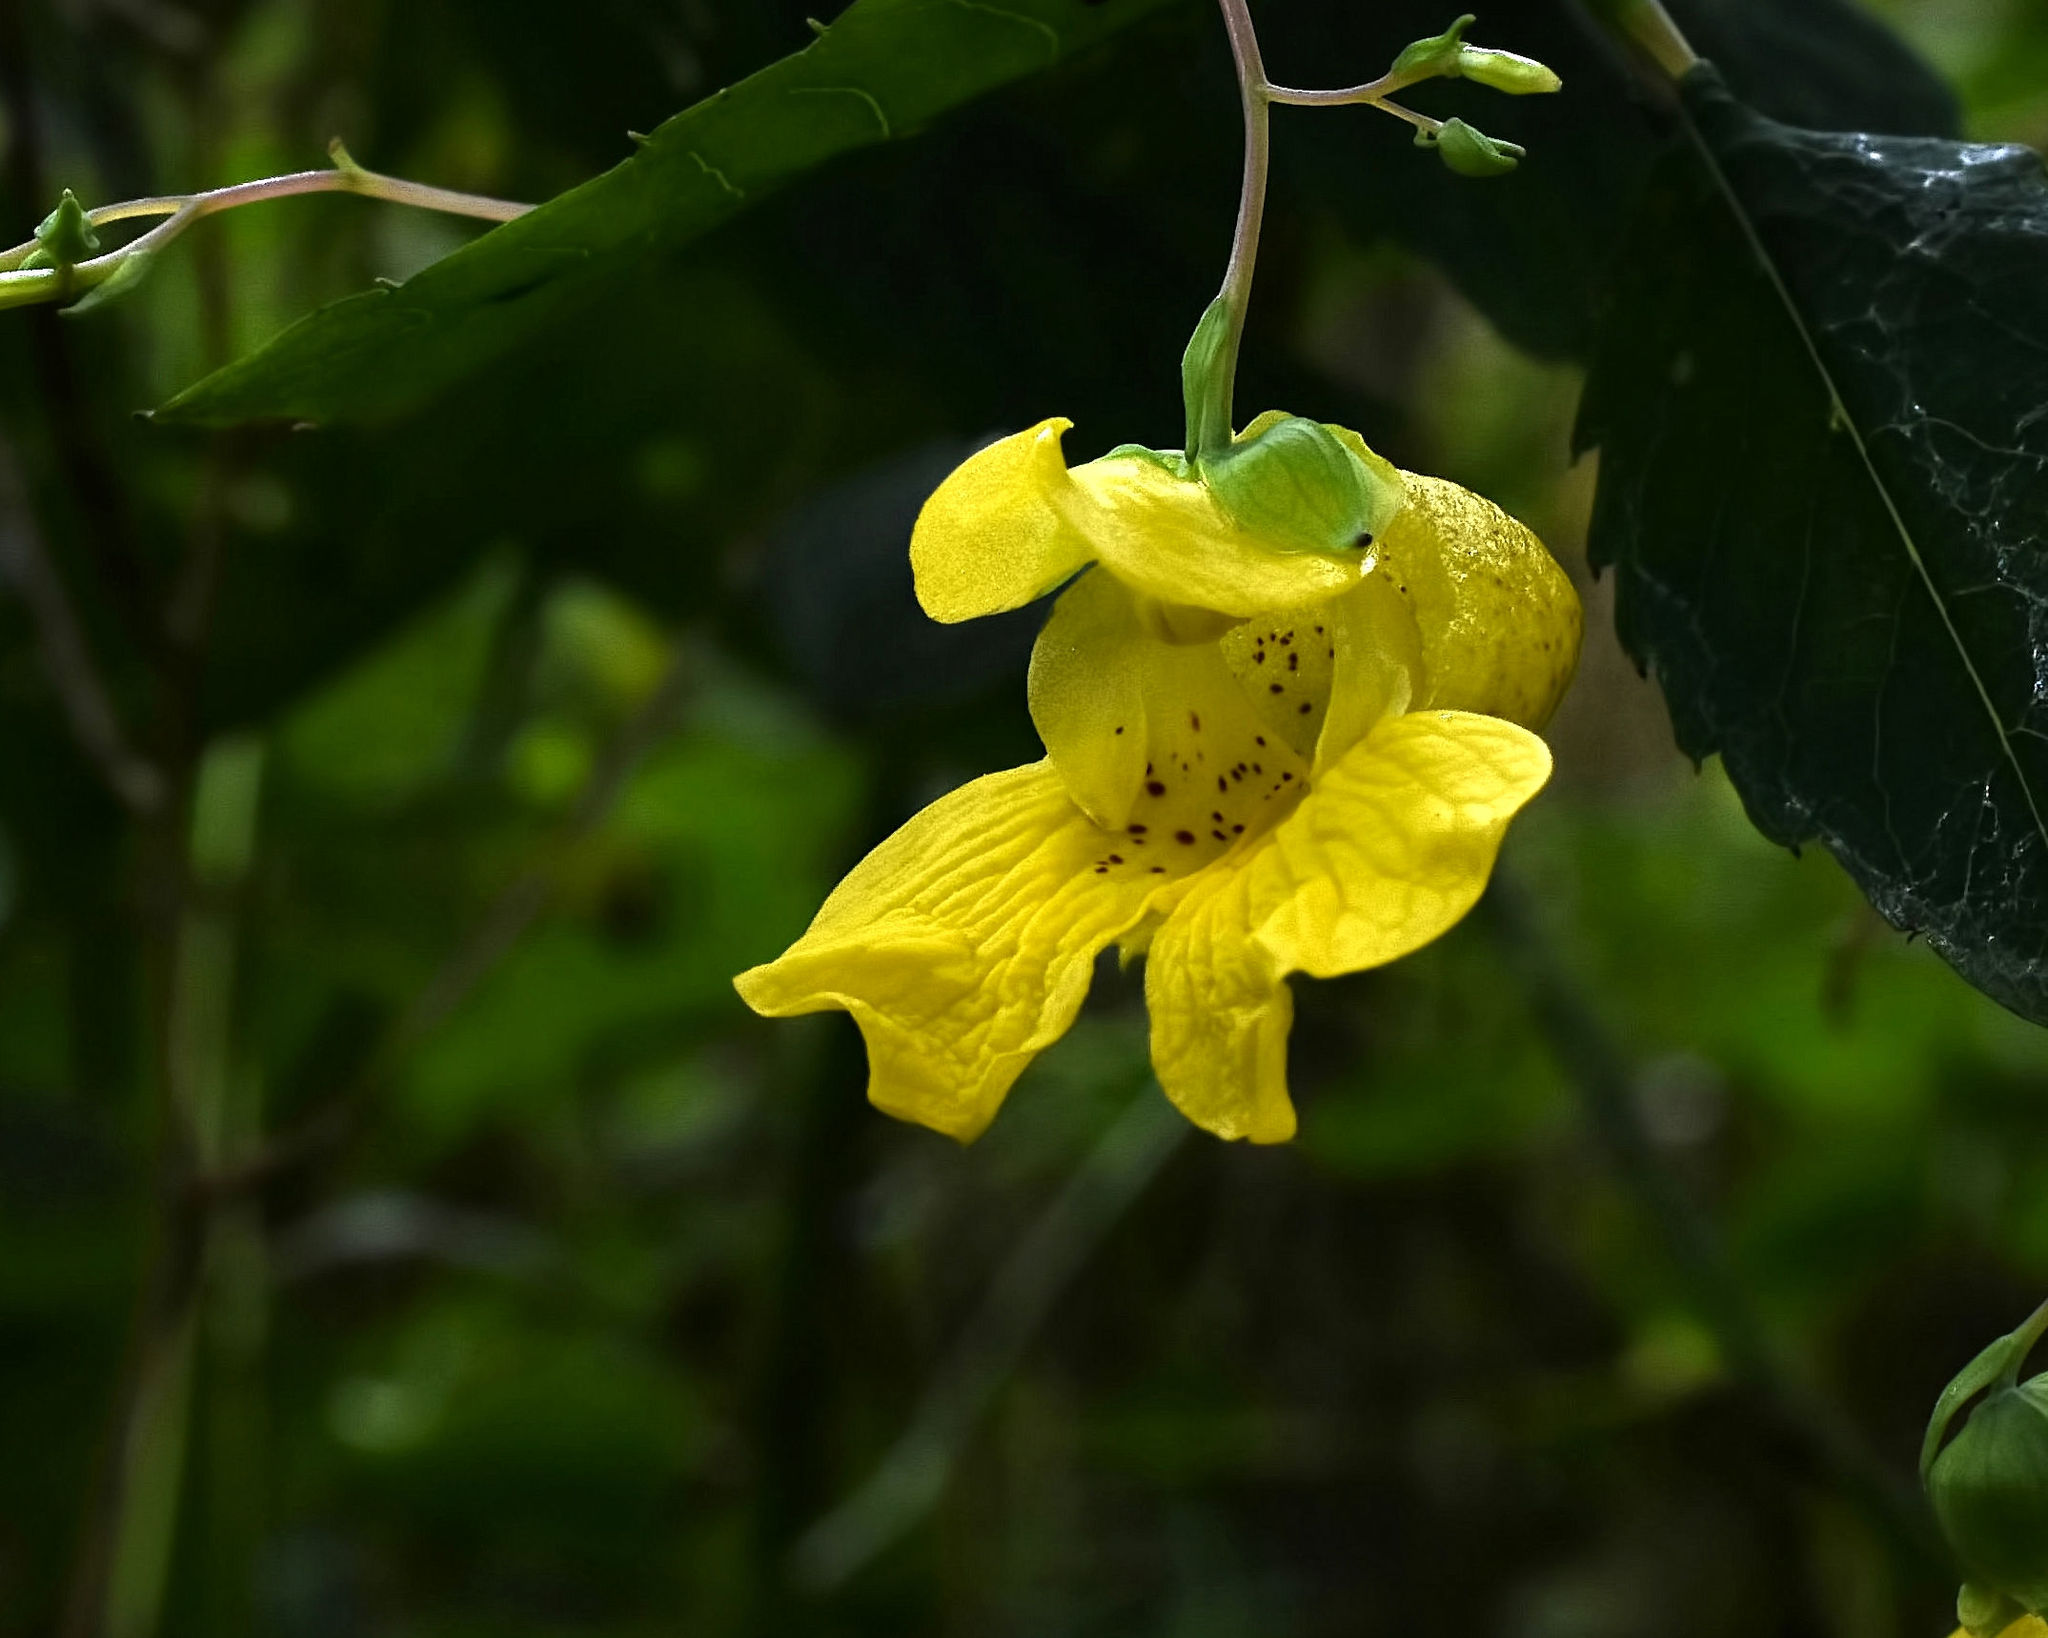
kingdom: Plantae
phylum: Tracheophyta
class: Magnoliopsida
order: Ericales
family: Balsaminaceae
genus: Impatiens
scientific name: Impatiens pallida
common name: Pale snapweed
